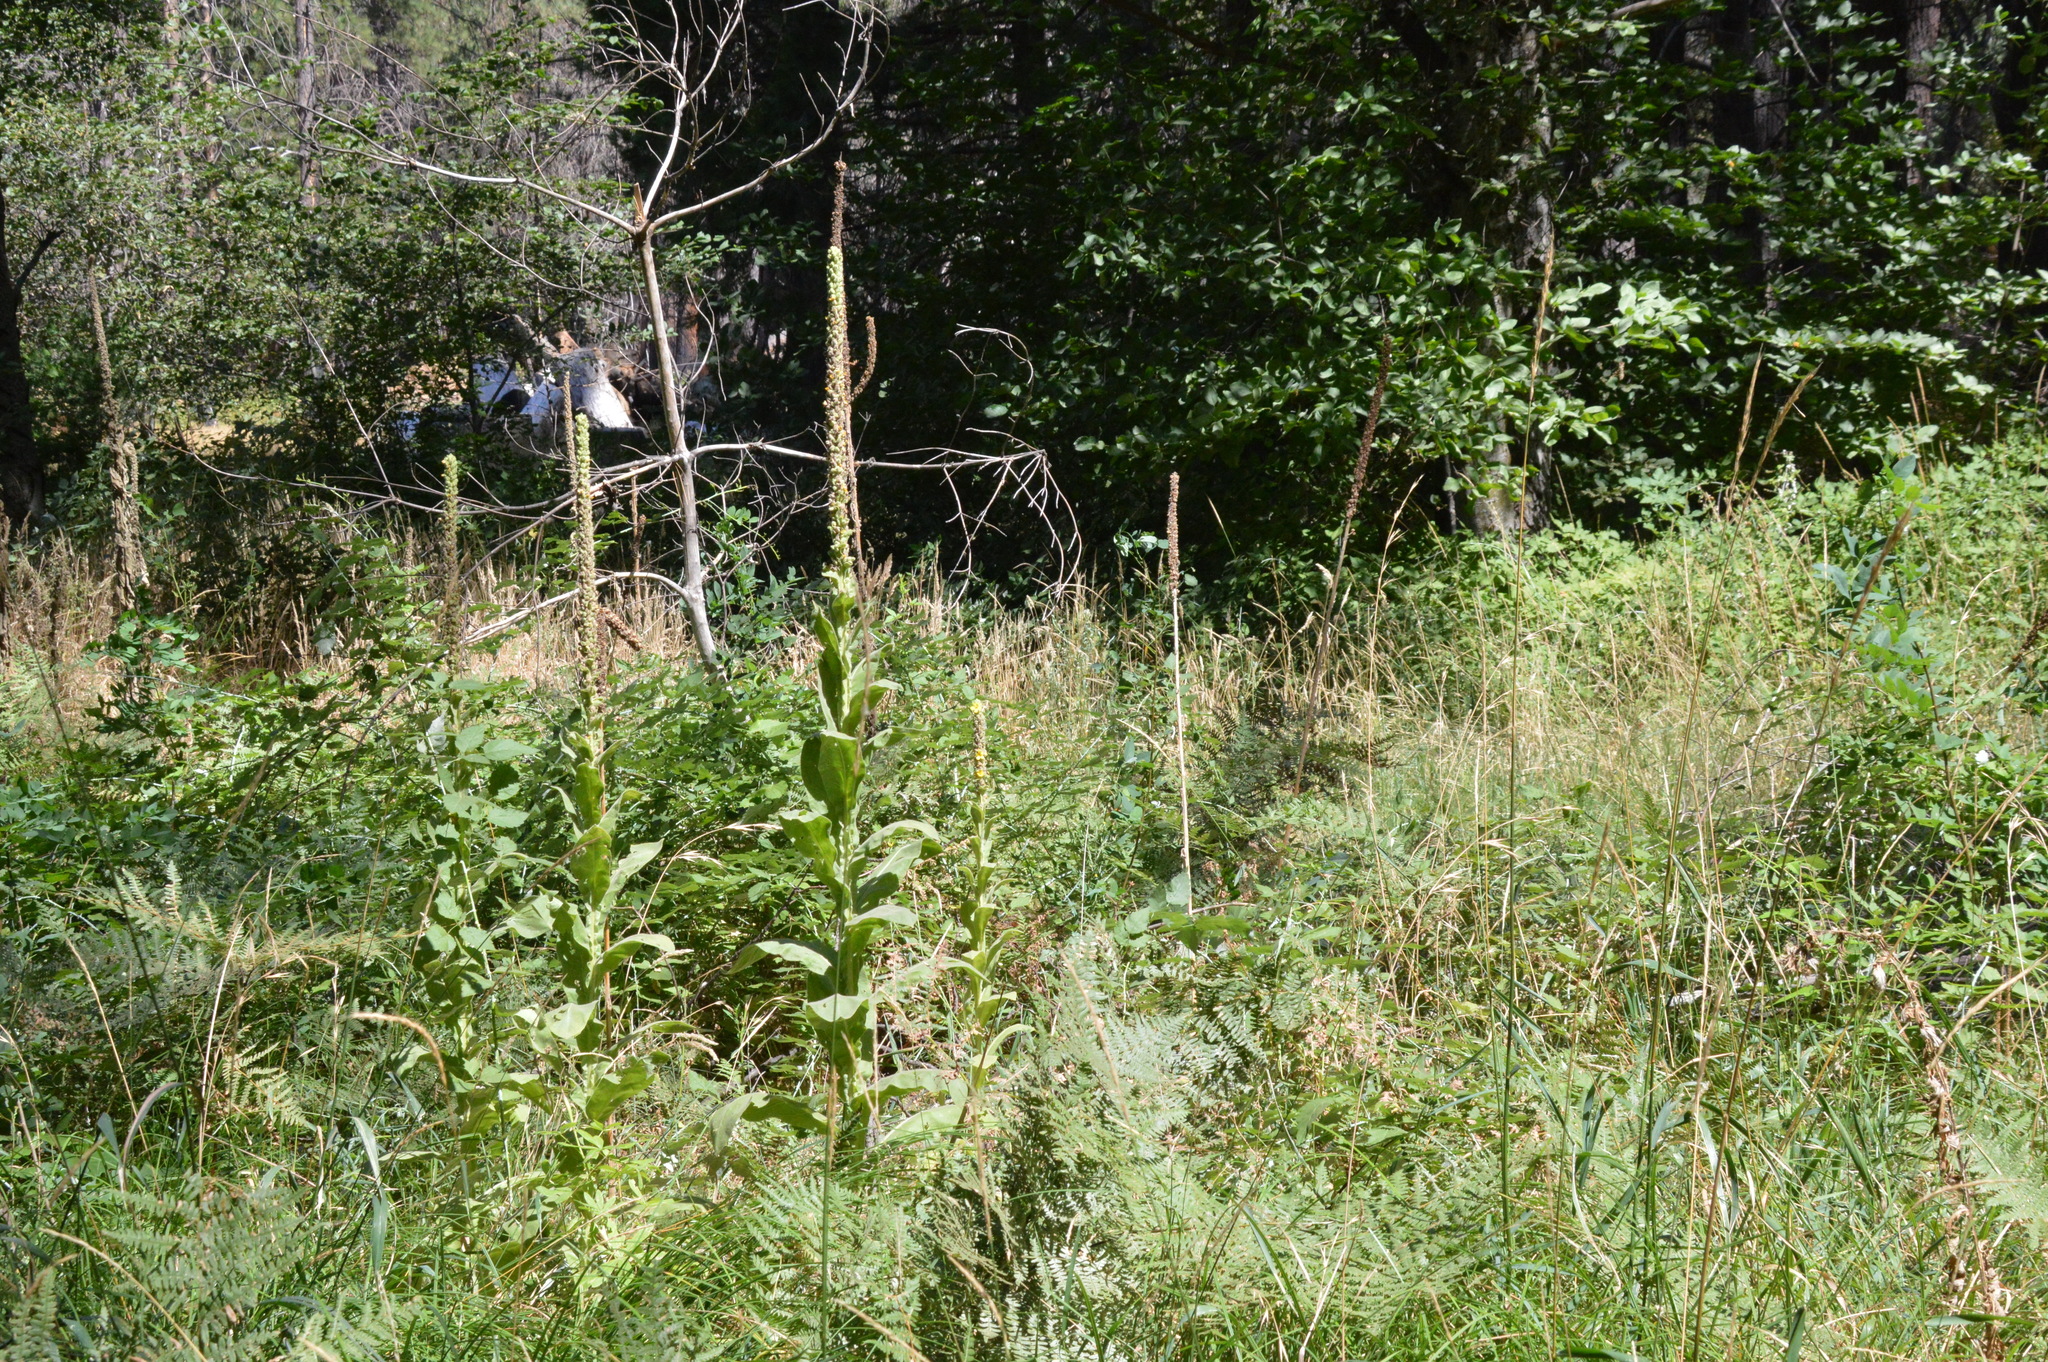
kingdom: Plantae
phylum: Tracheophyta
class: Magnoliopsida
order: Lamiales
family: Scrophulariaceae
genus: Verbascum
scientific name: Verbascum thapsus
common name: Common mullein
